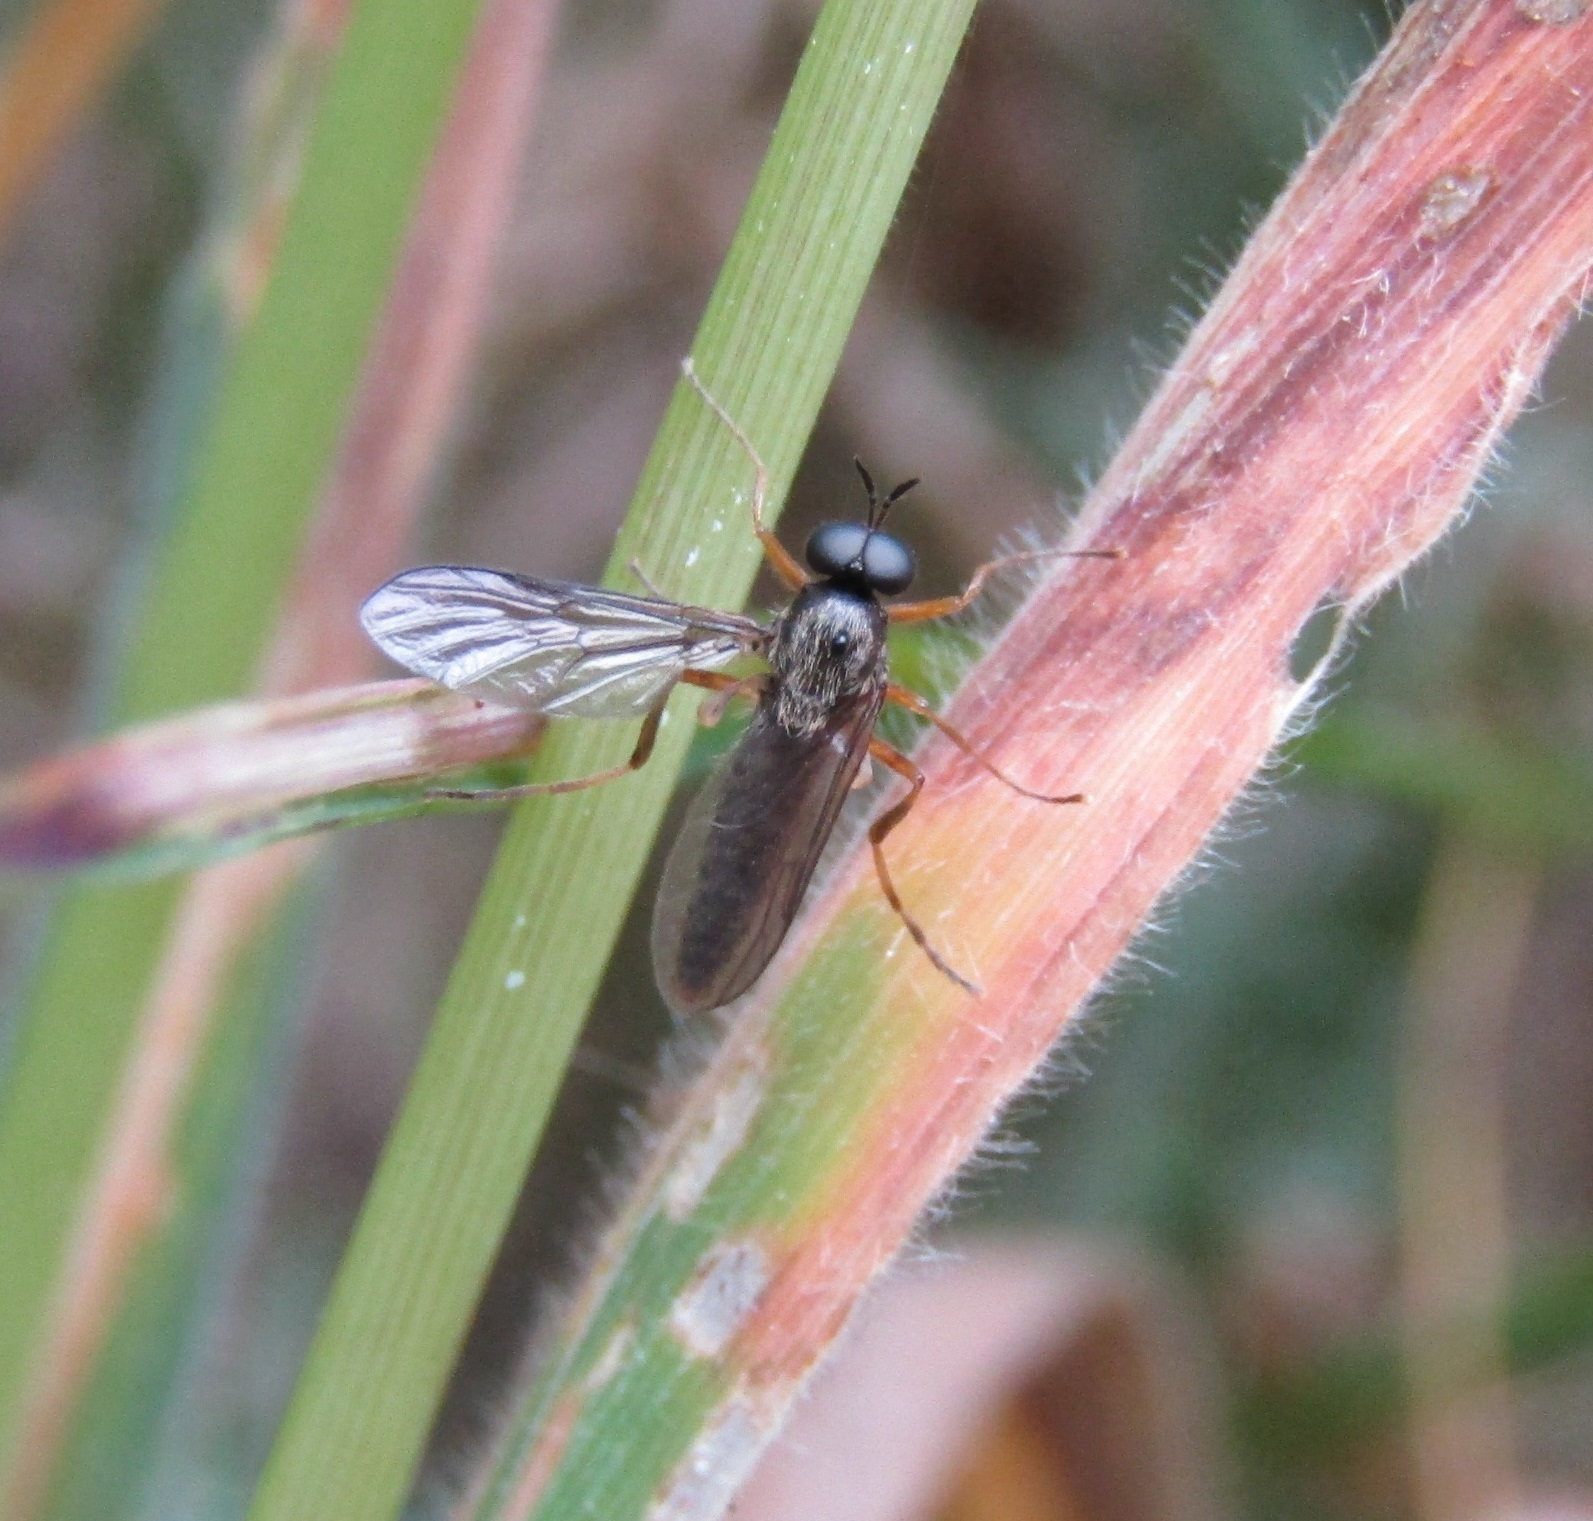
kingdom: Animalia
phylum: Arthropoda
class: Insecta
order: Diptera
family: Stratiomyidae
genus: Inopus
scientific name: Inopus rubriceps
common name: Soldier fly
